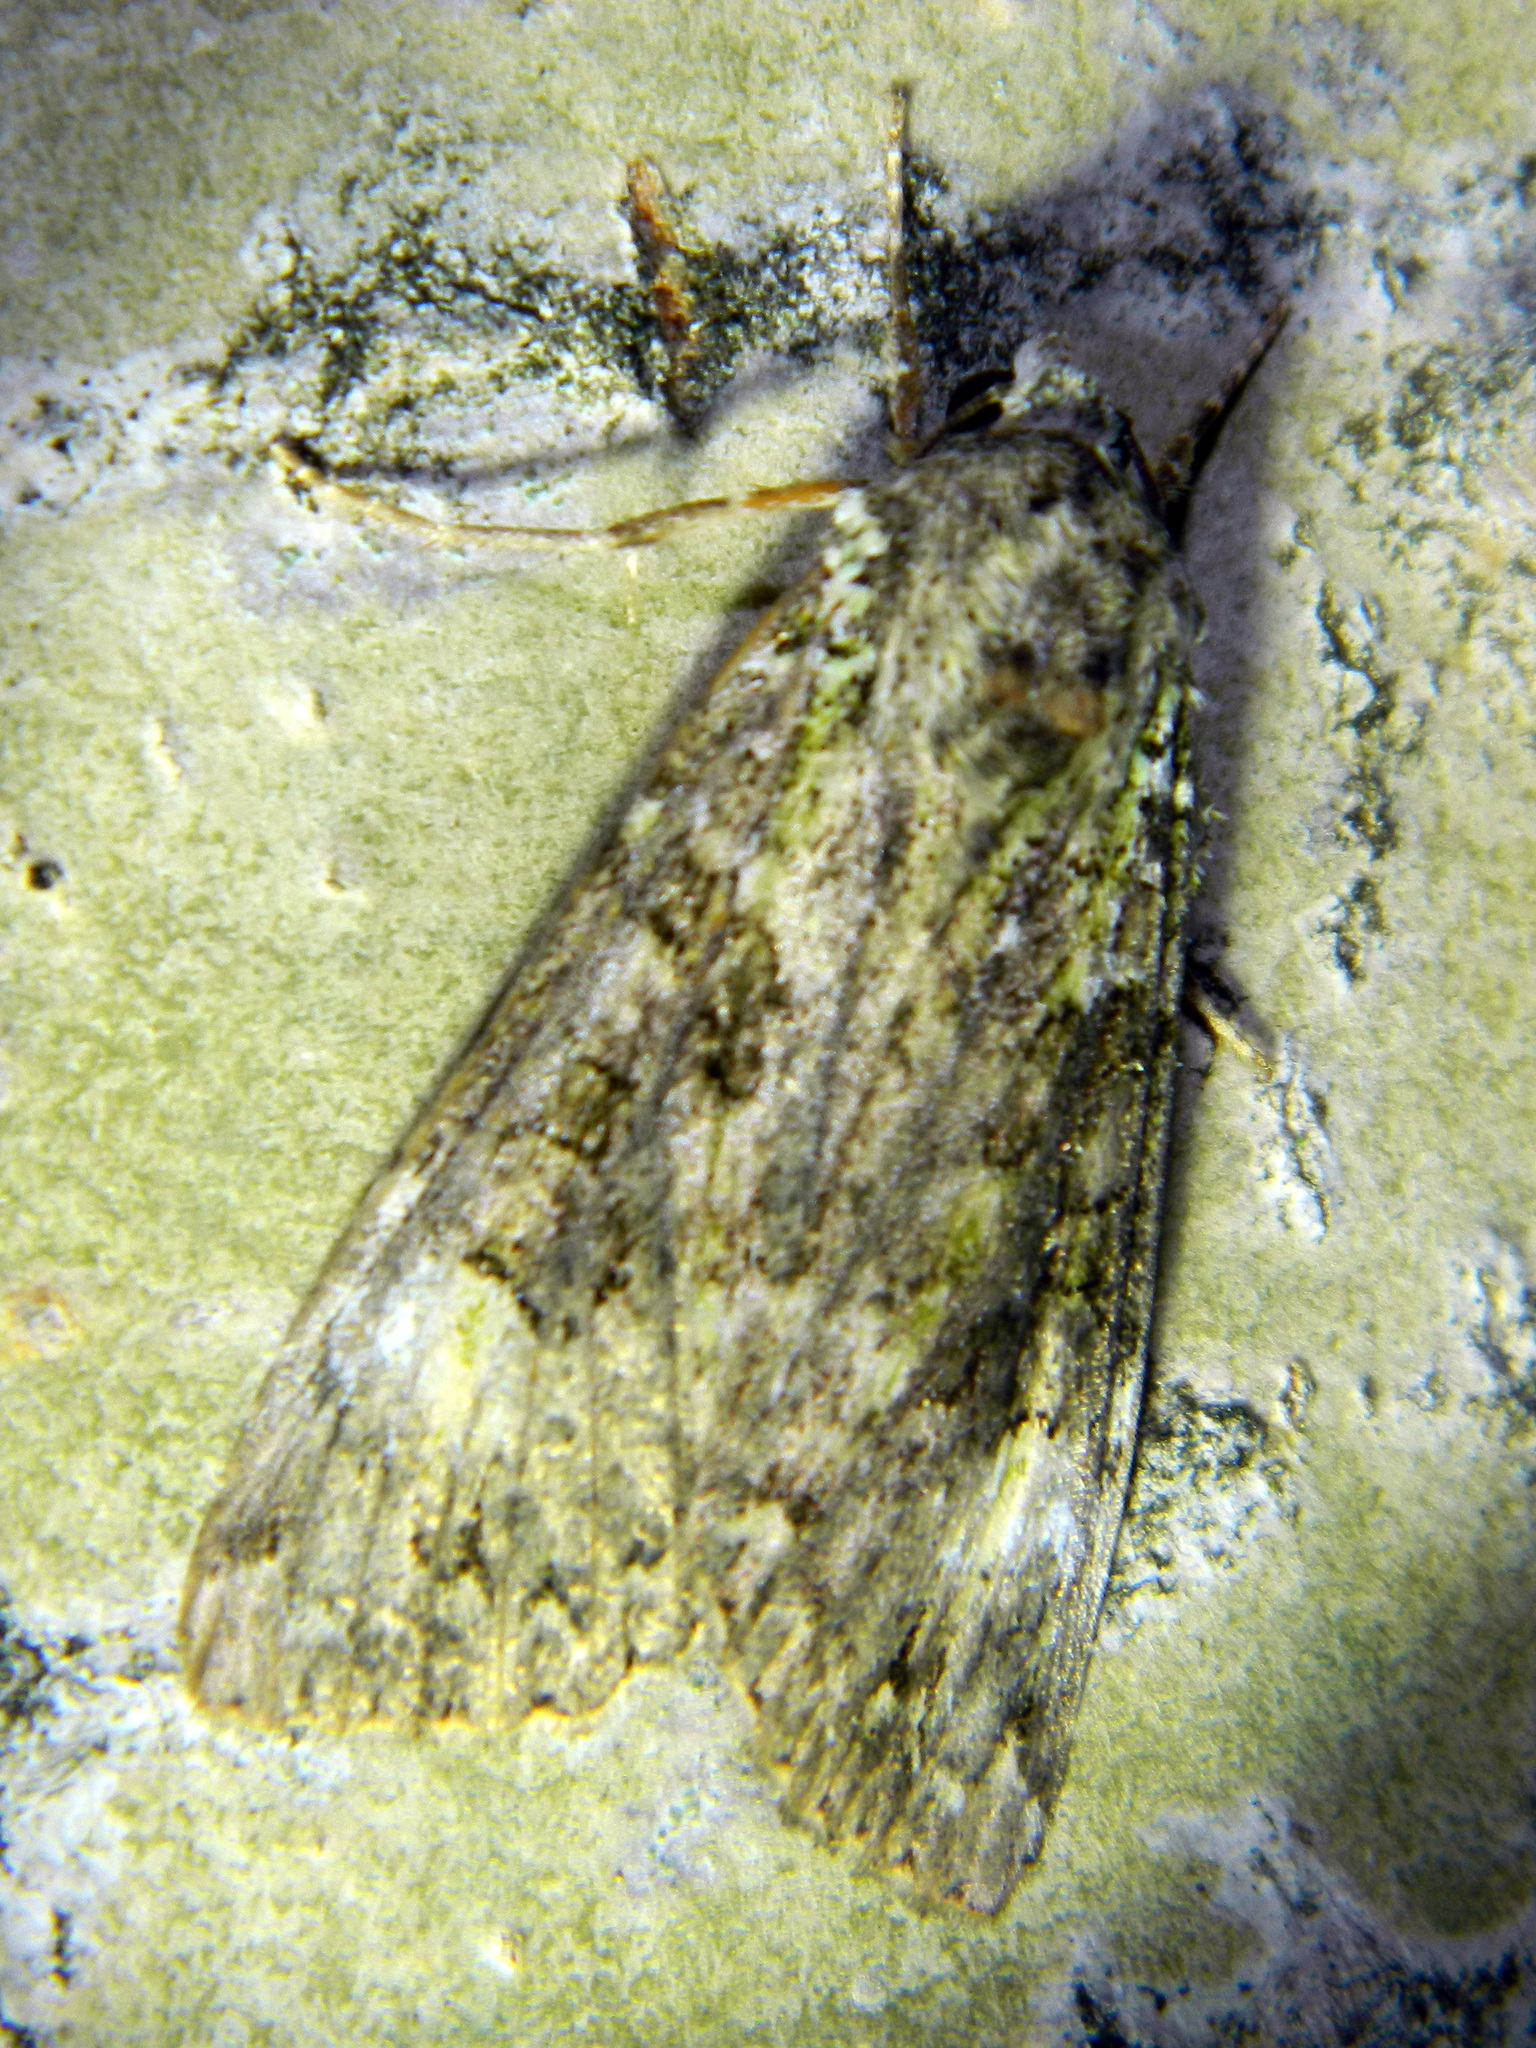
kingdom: Animalia
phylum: Arthropoda
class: Insecta
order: Lepidoptera
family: Noctuidae
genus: Anaplectoides
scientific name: Anaplectoides prasina
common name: Green arches
